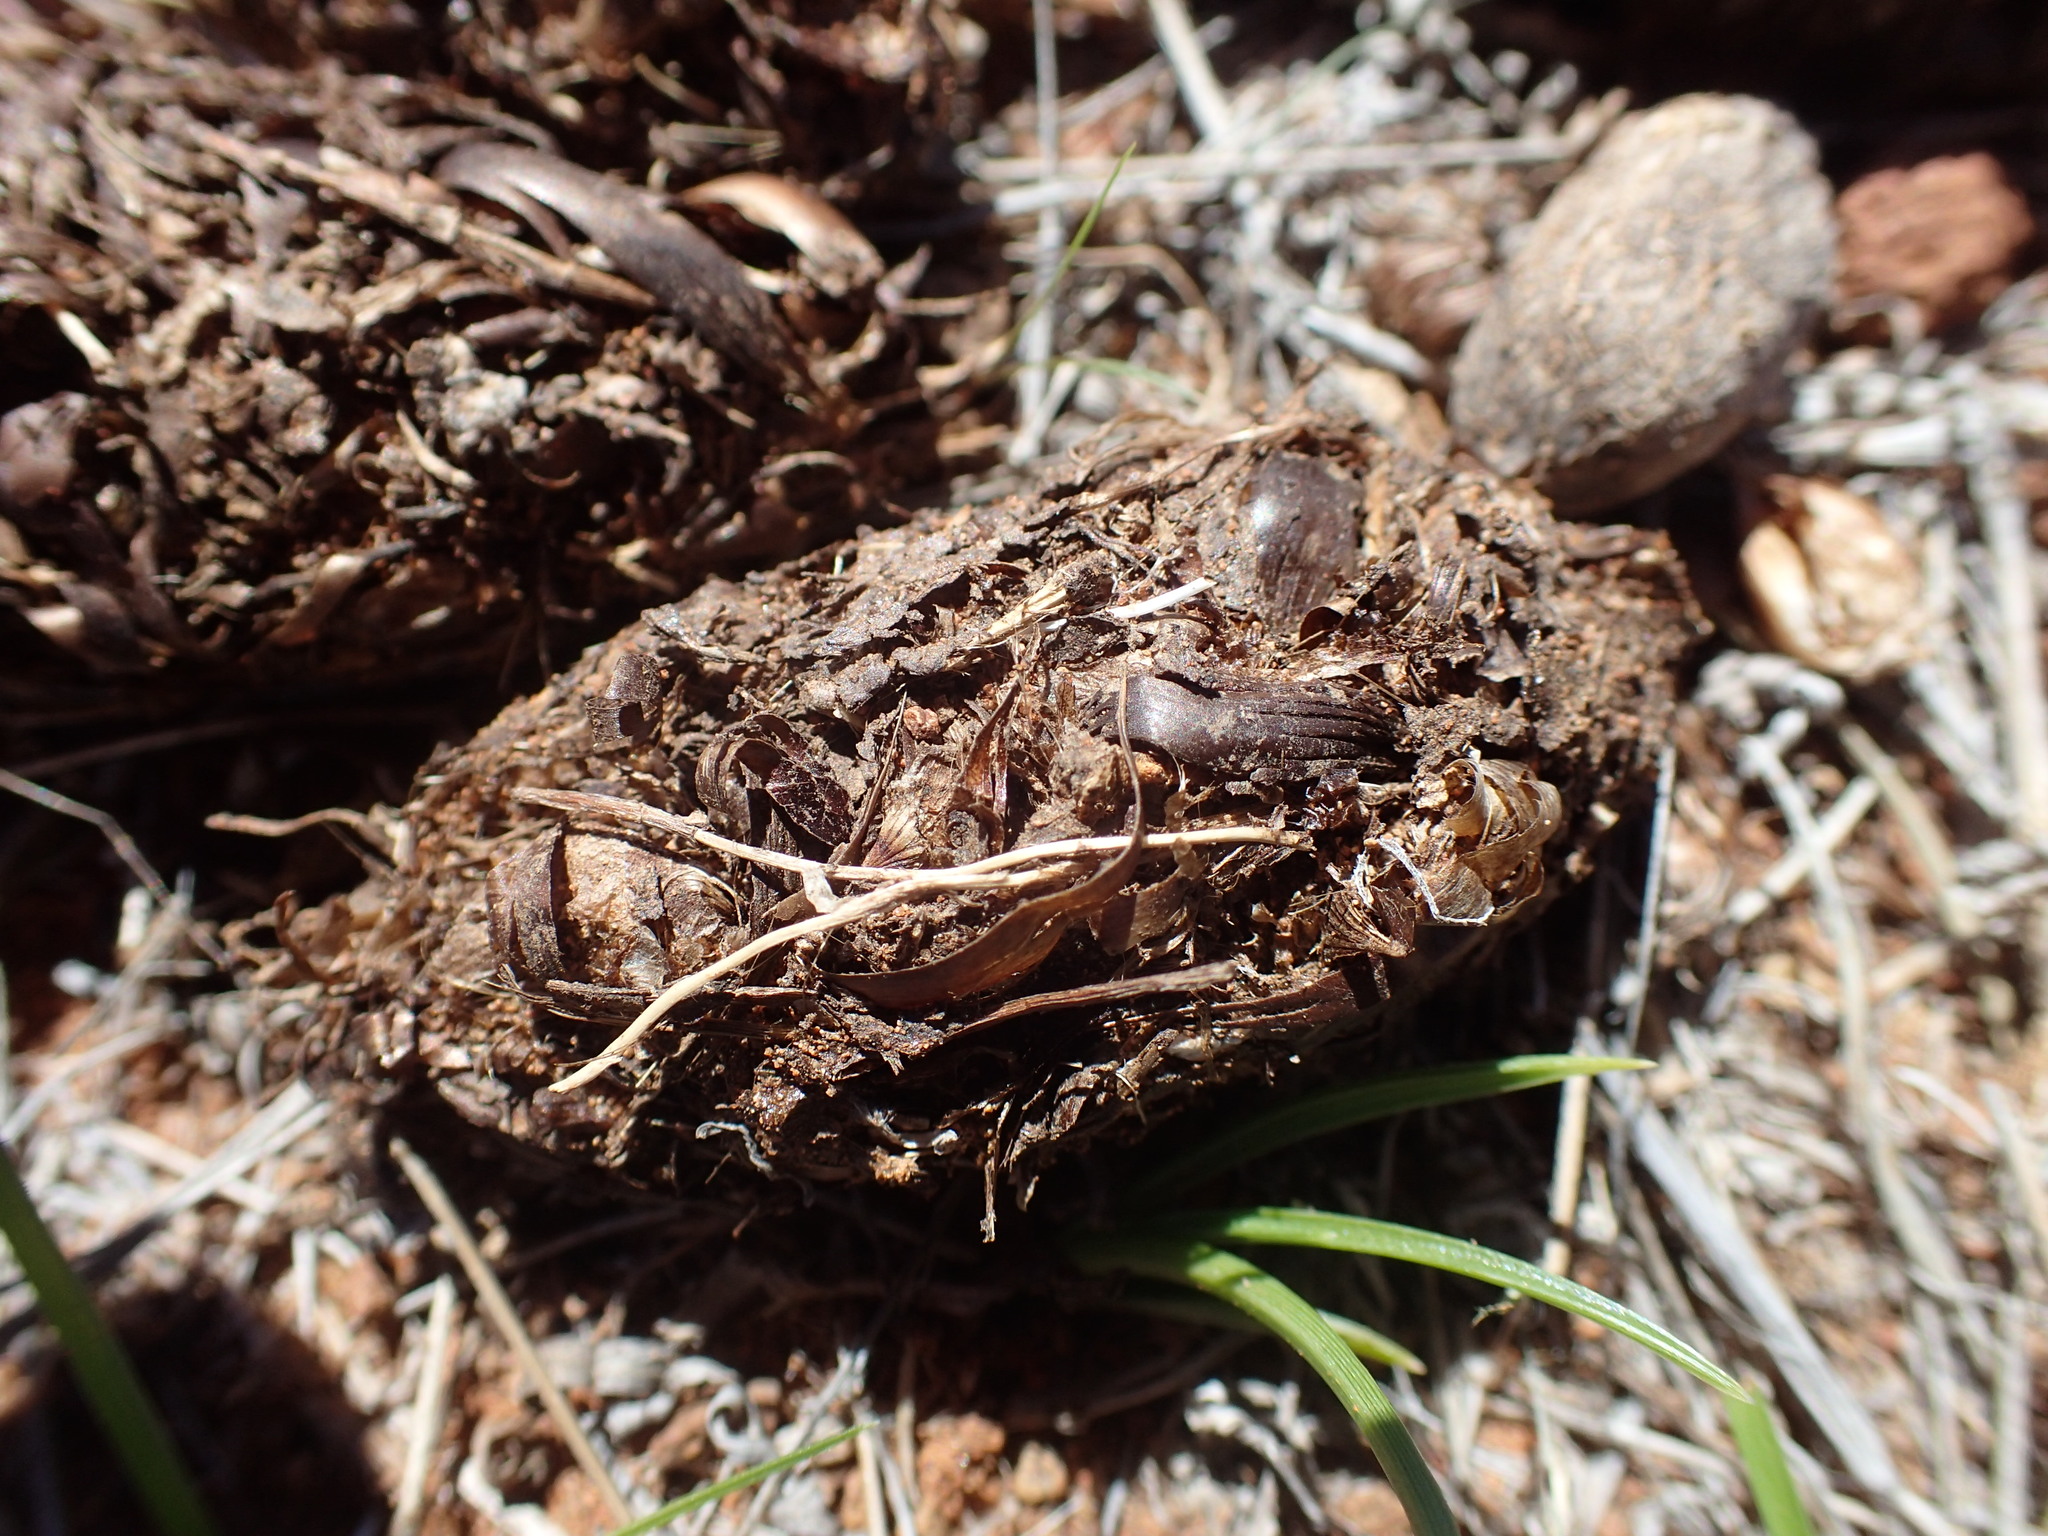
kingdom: Animalia
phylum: Chordata
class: Mammalia
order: Rodentia
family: Hystricidae
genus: Hystrix
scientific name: Hystrix africaeaustralis
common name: Cape porcupine
